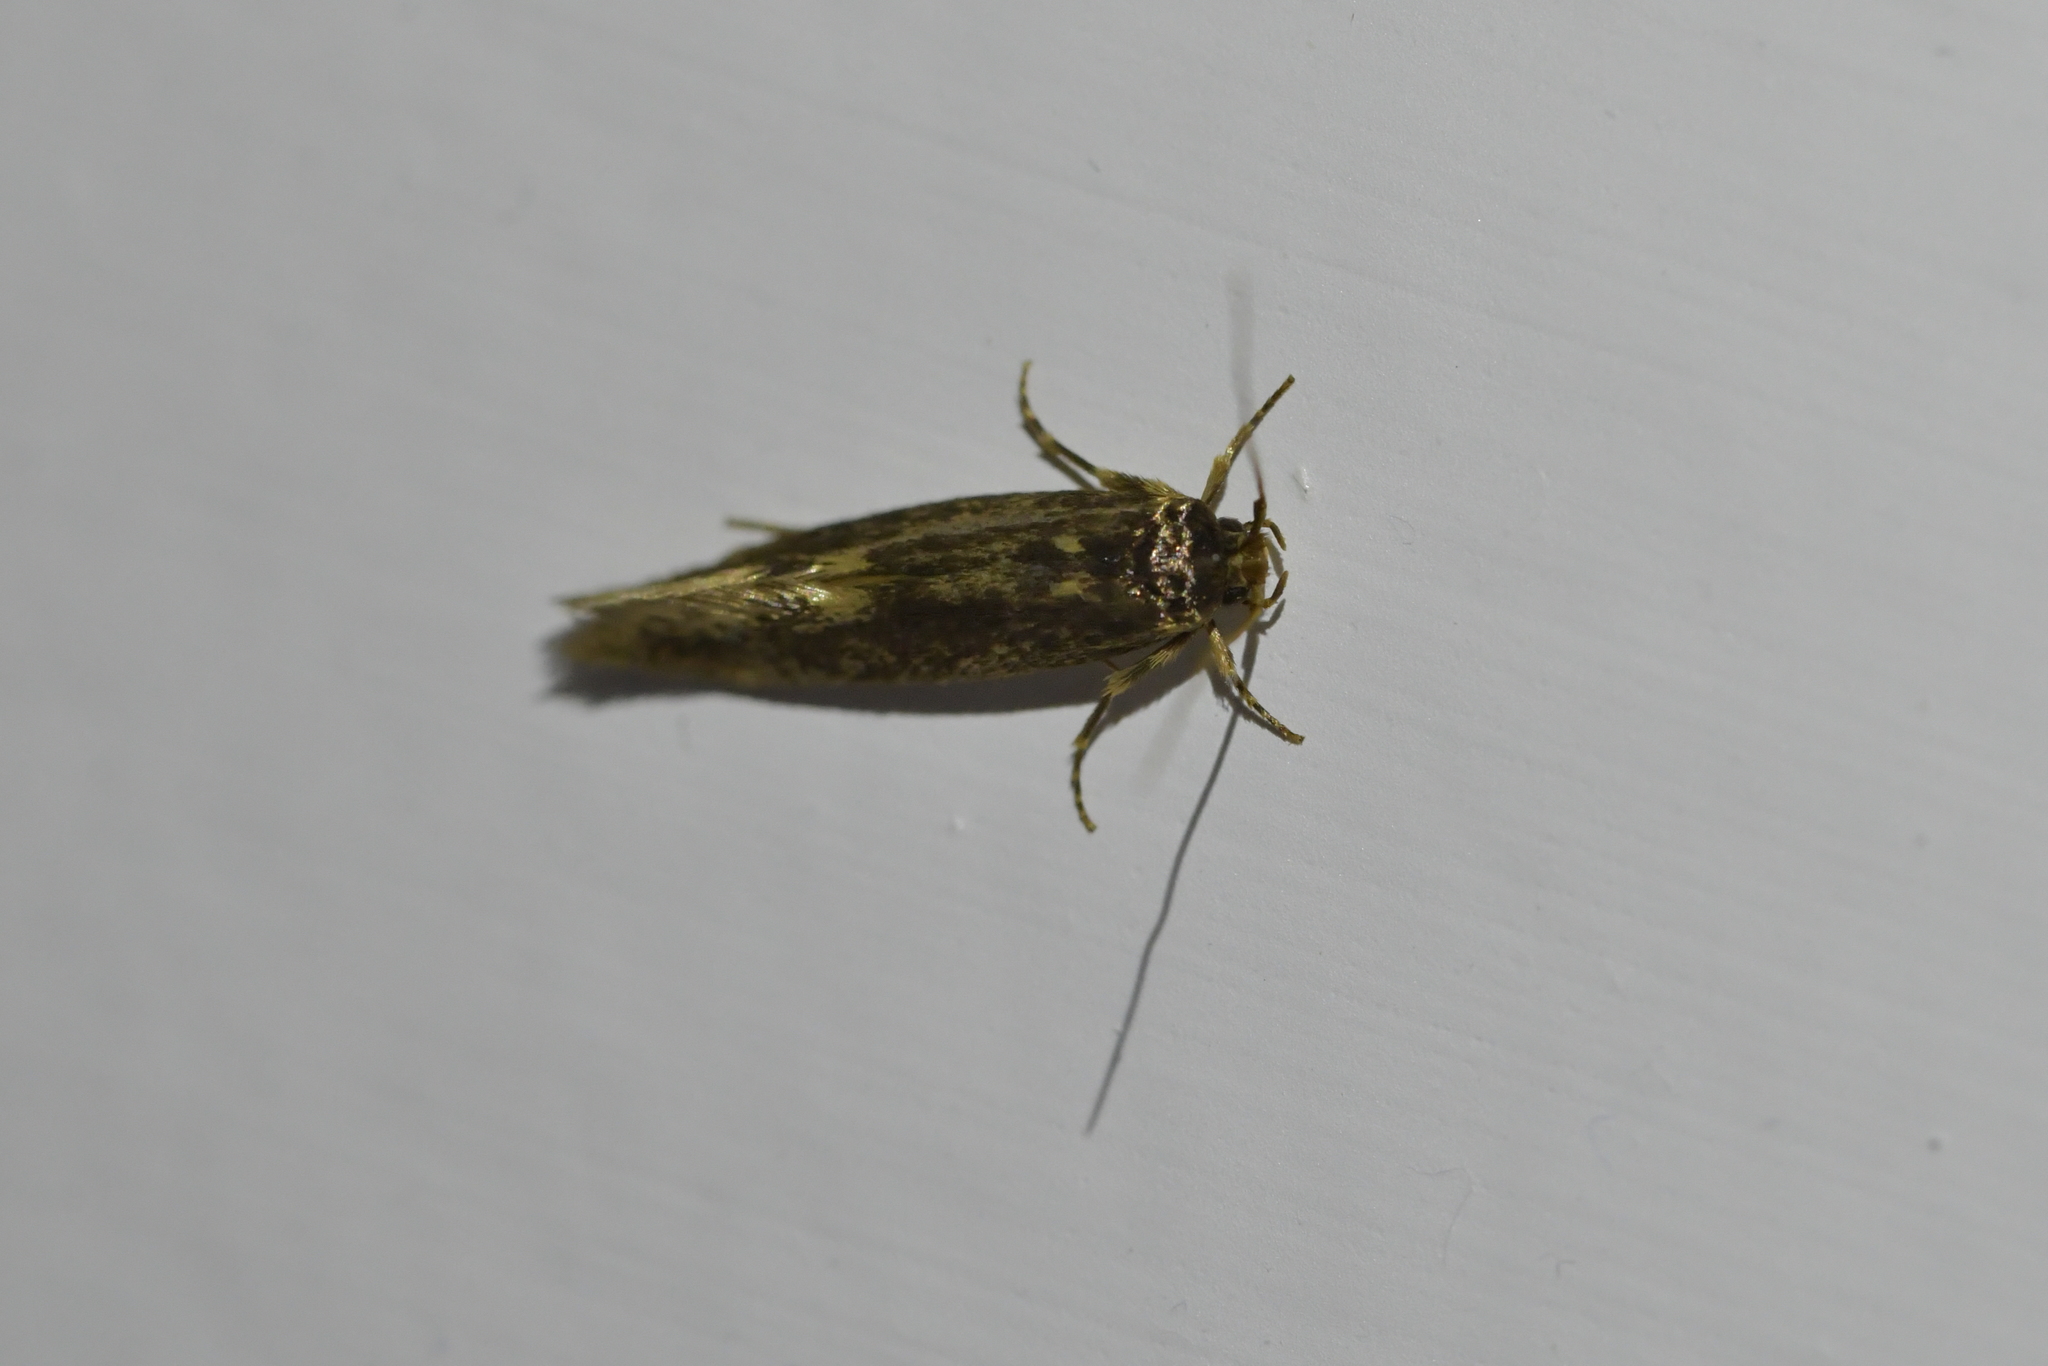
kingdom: Animalia
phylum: Arthropoda
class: Insecta
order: Lepidoptera
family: Tineidae
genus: Opogona
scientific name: Opogona omoscopa
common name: Moth
